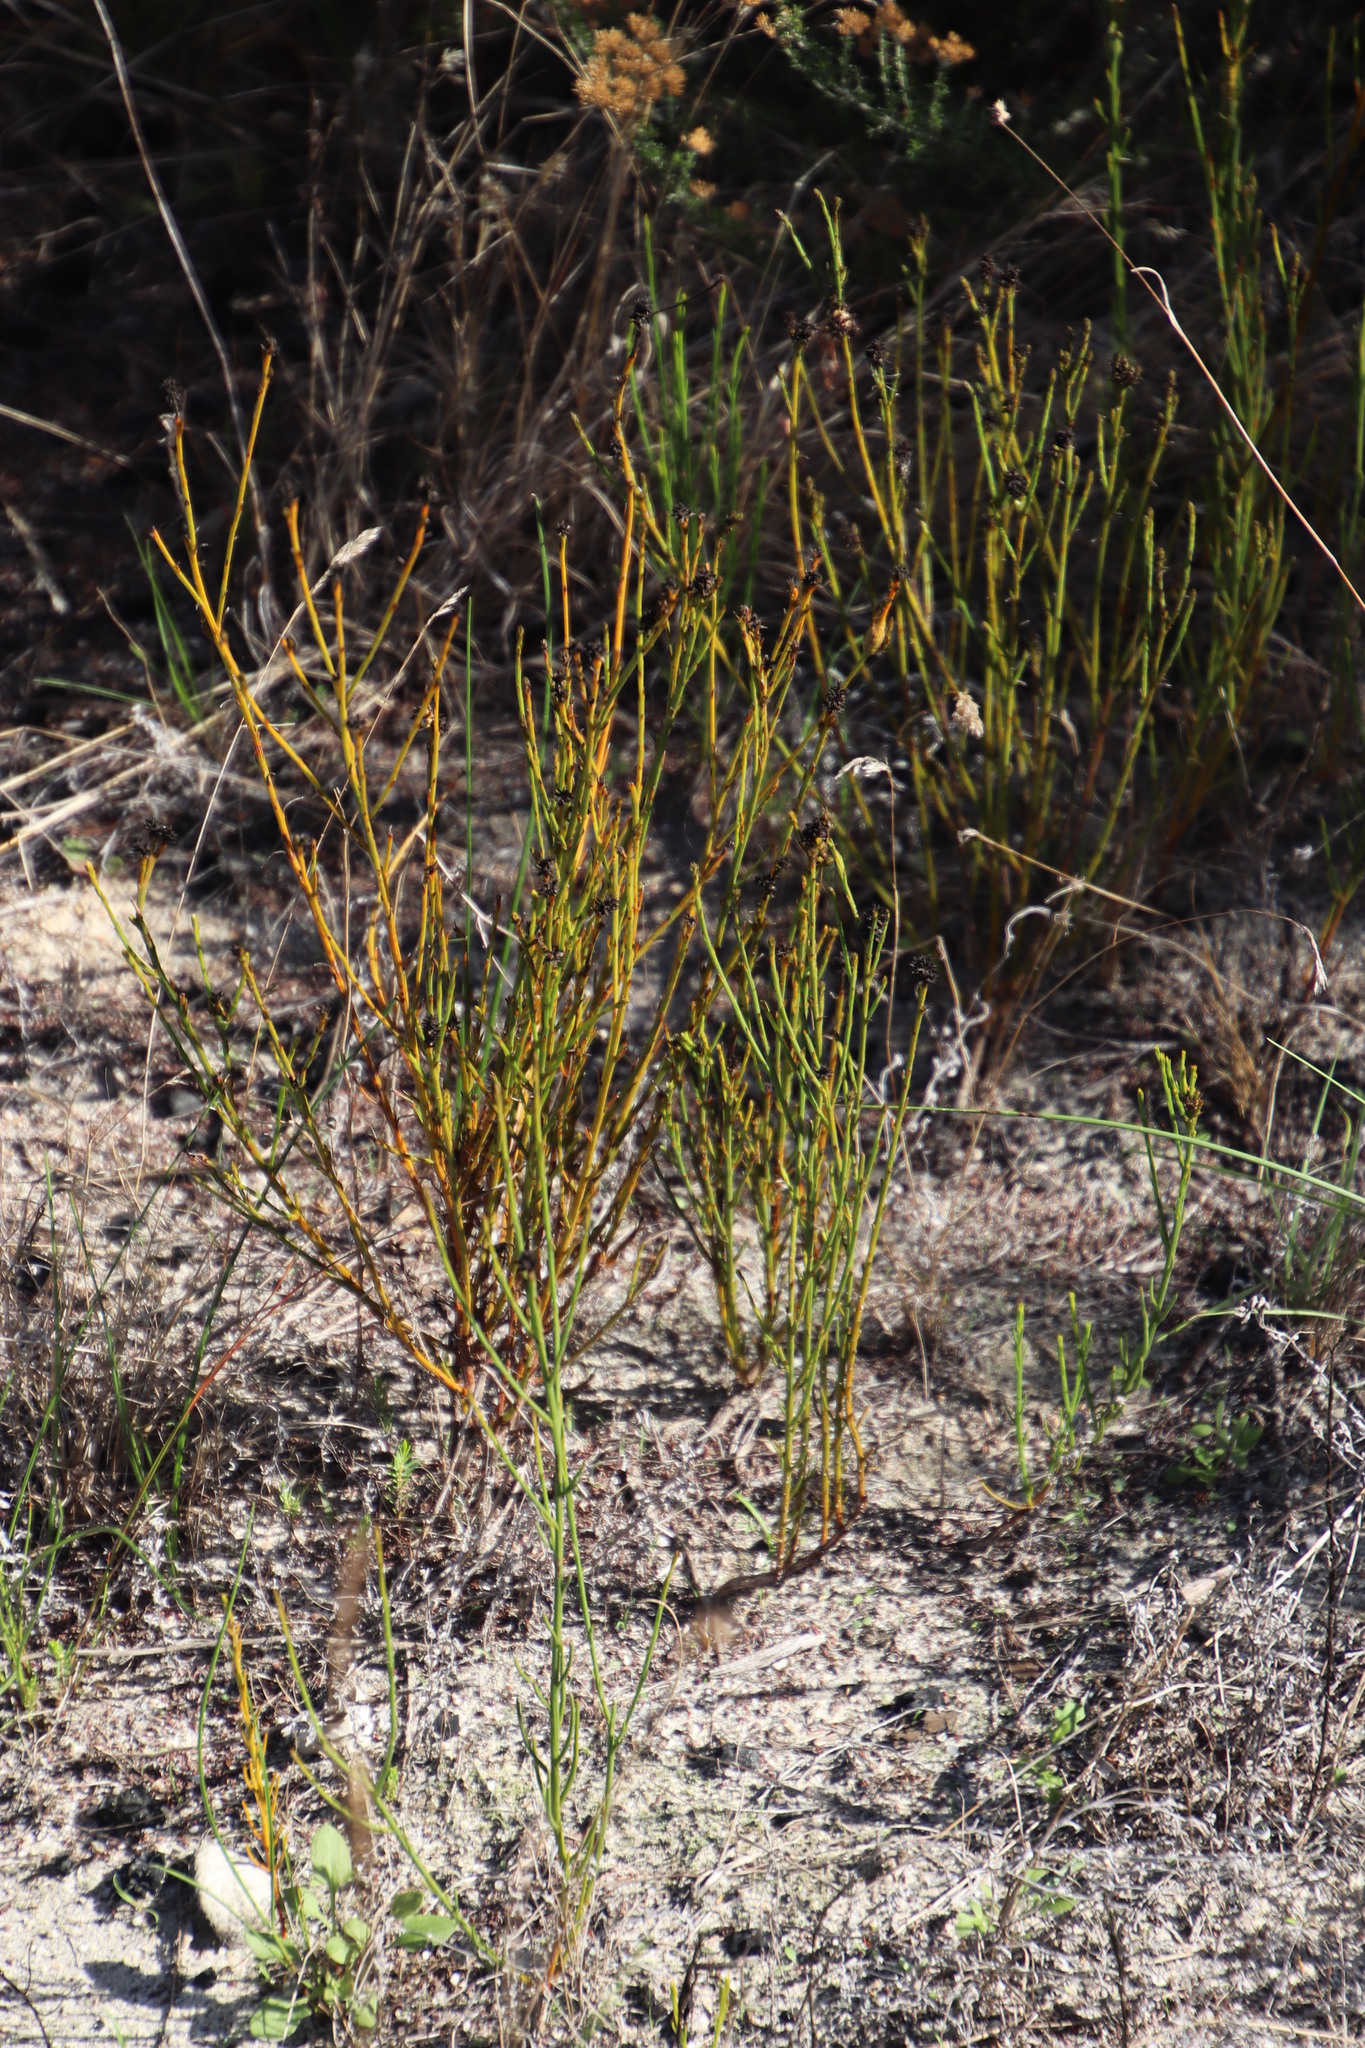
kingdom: Plantae
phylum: Tracheophyta
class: Magnoliopsida
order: Santalales
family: Thesiaceae
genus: Thesium
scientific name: Thesium aggregatum
